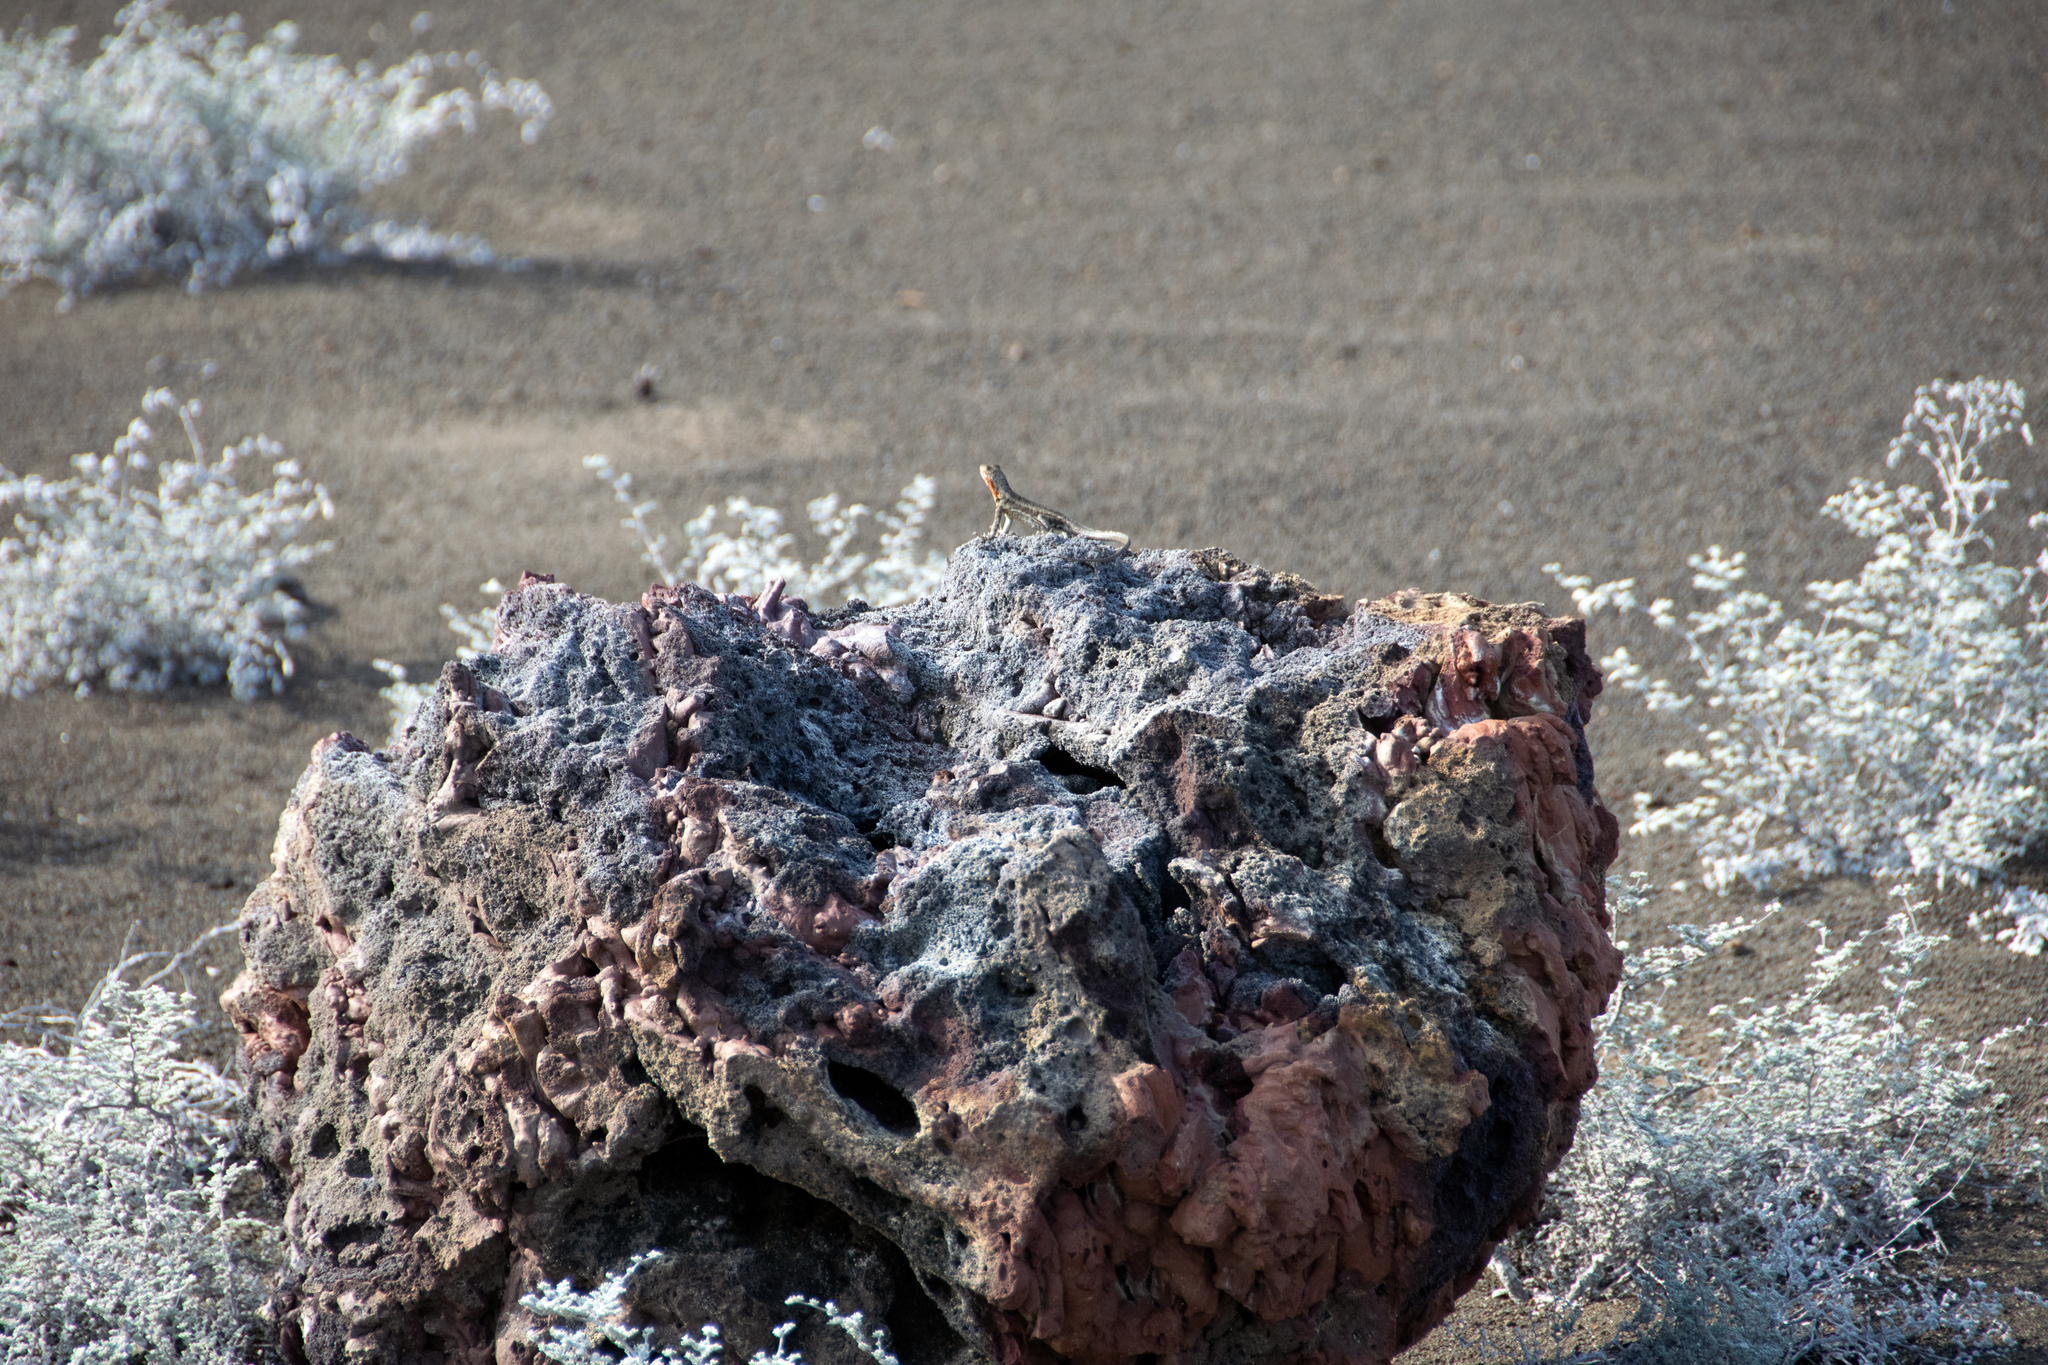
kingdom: Animalia
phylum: Chordata
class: Squamata
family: Tropiduridae
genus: Microlophus
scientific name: Microlophus jacobii
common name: Santiago lava lizard
